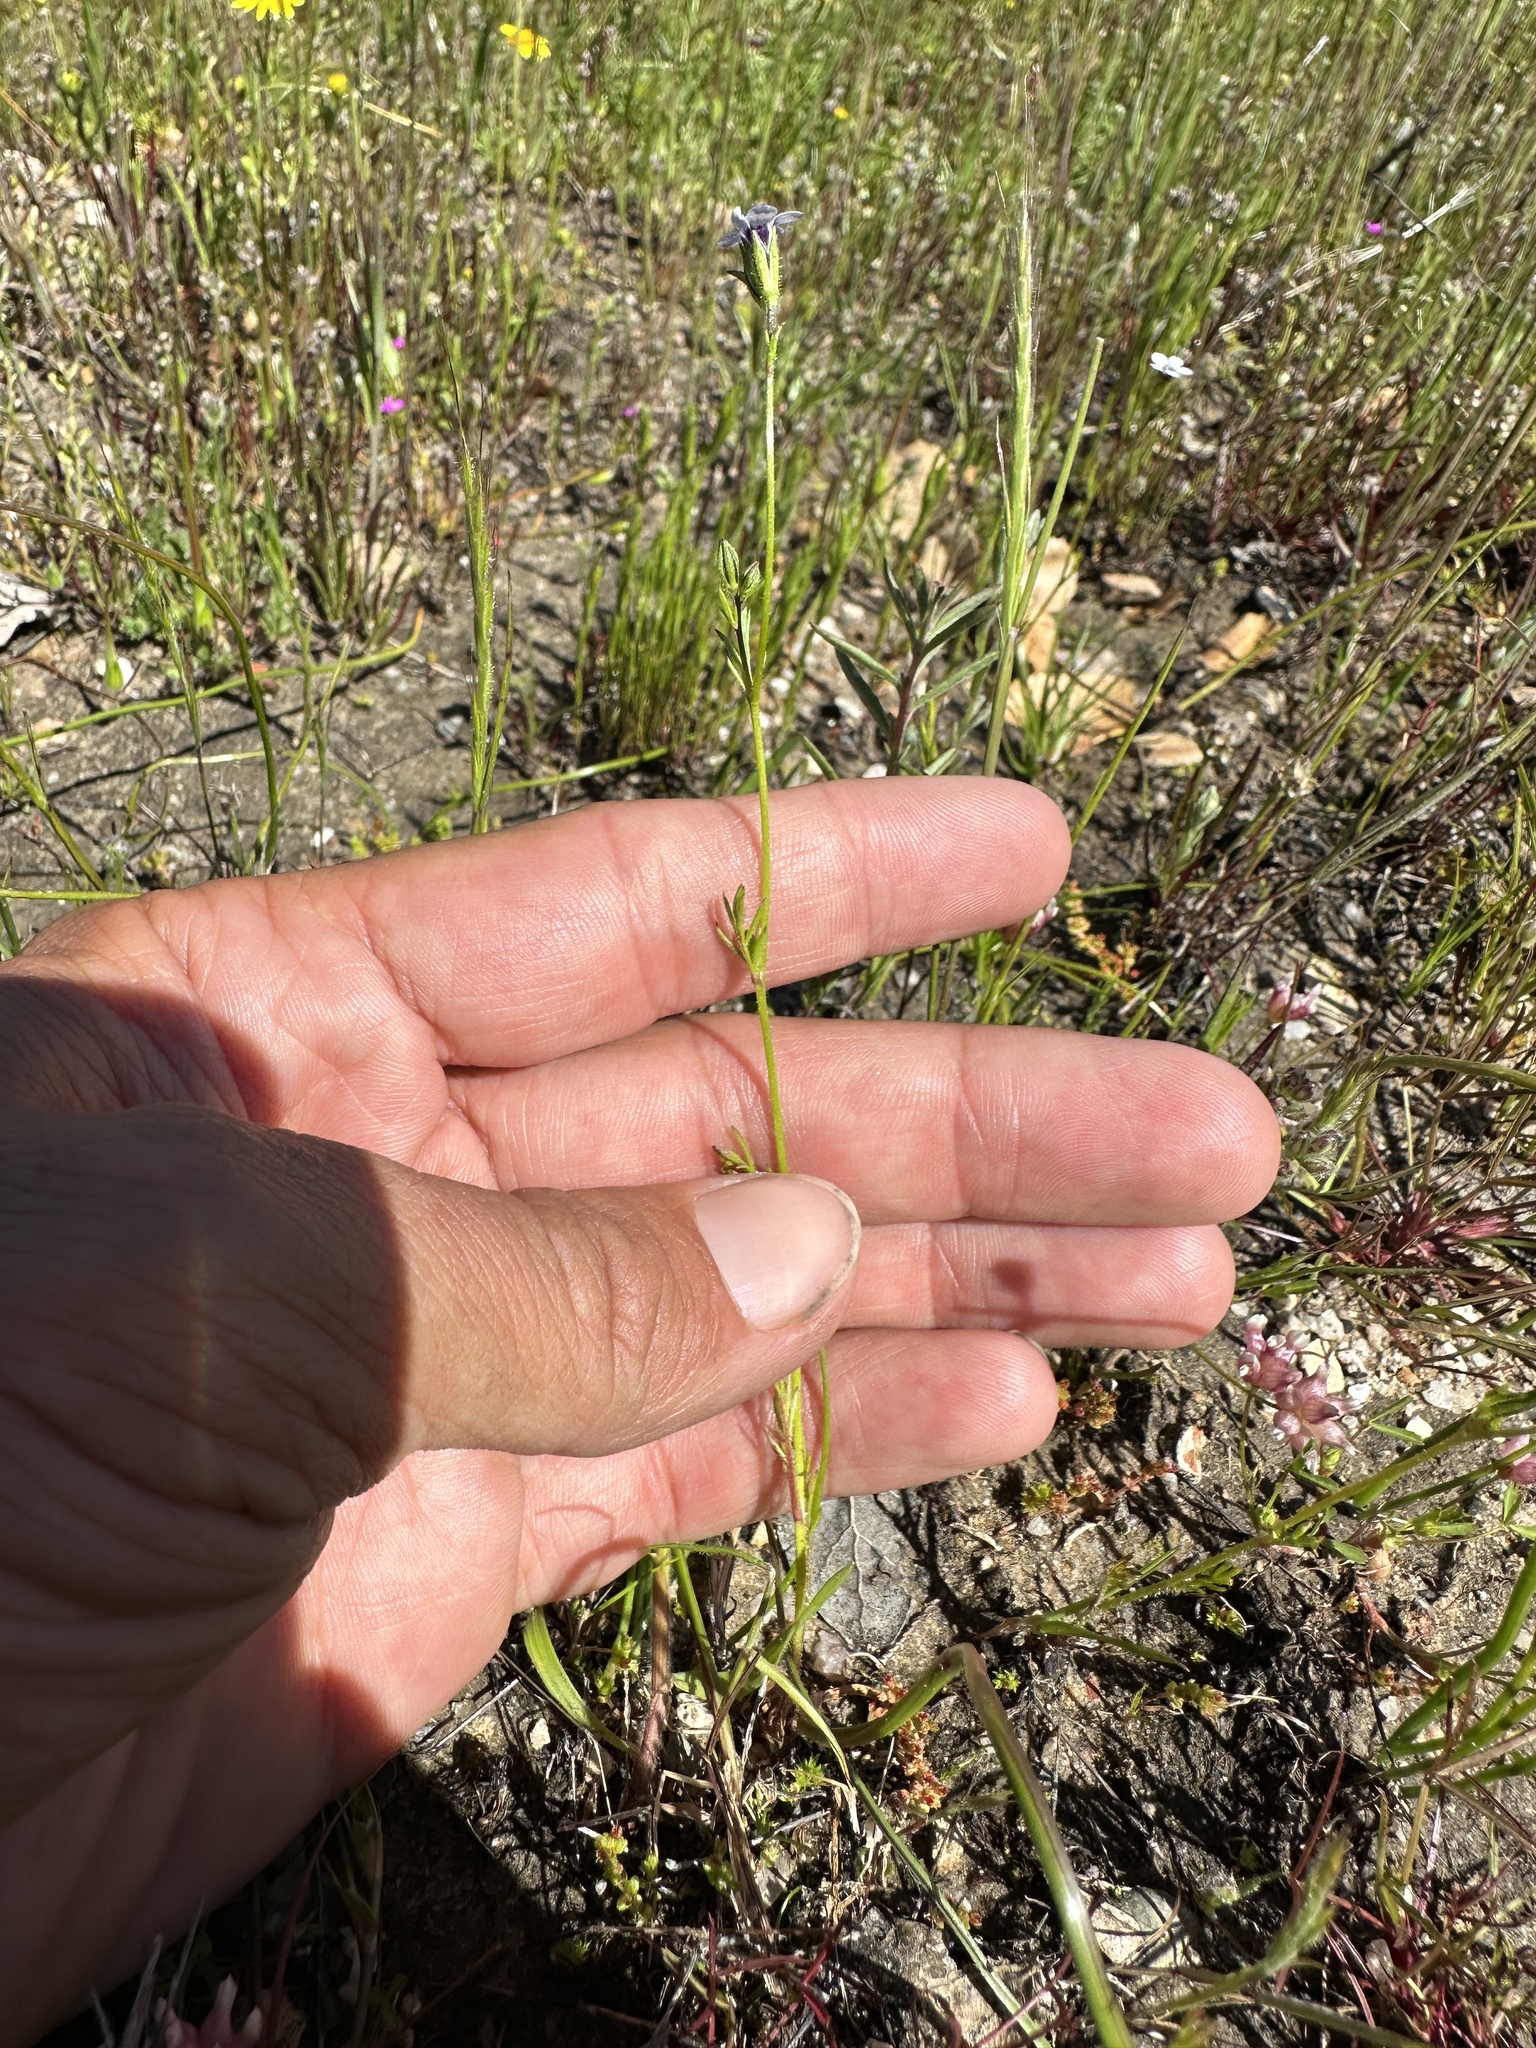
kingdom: Plantae
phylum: Tracheophyta
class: Magnoliopsida
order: Ericales
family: Polemoniaceae
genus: Gilia
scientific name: Gilia clivorum
